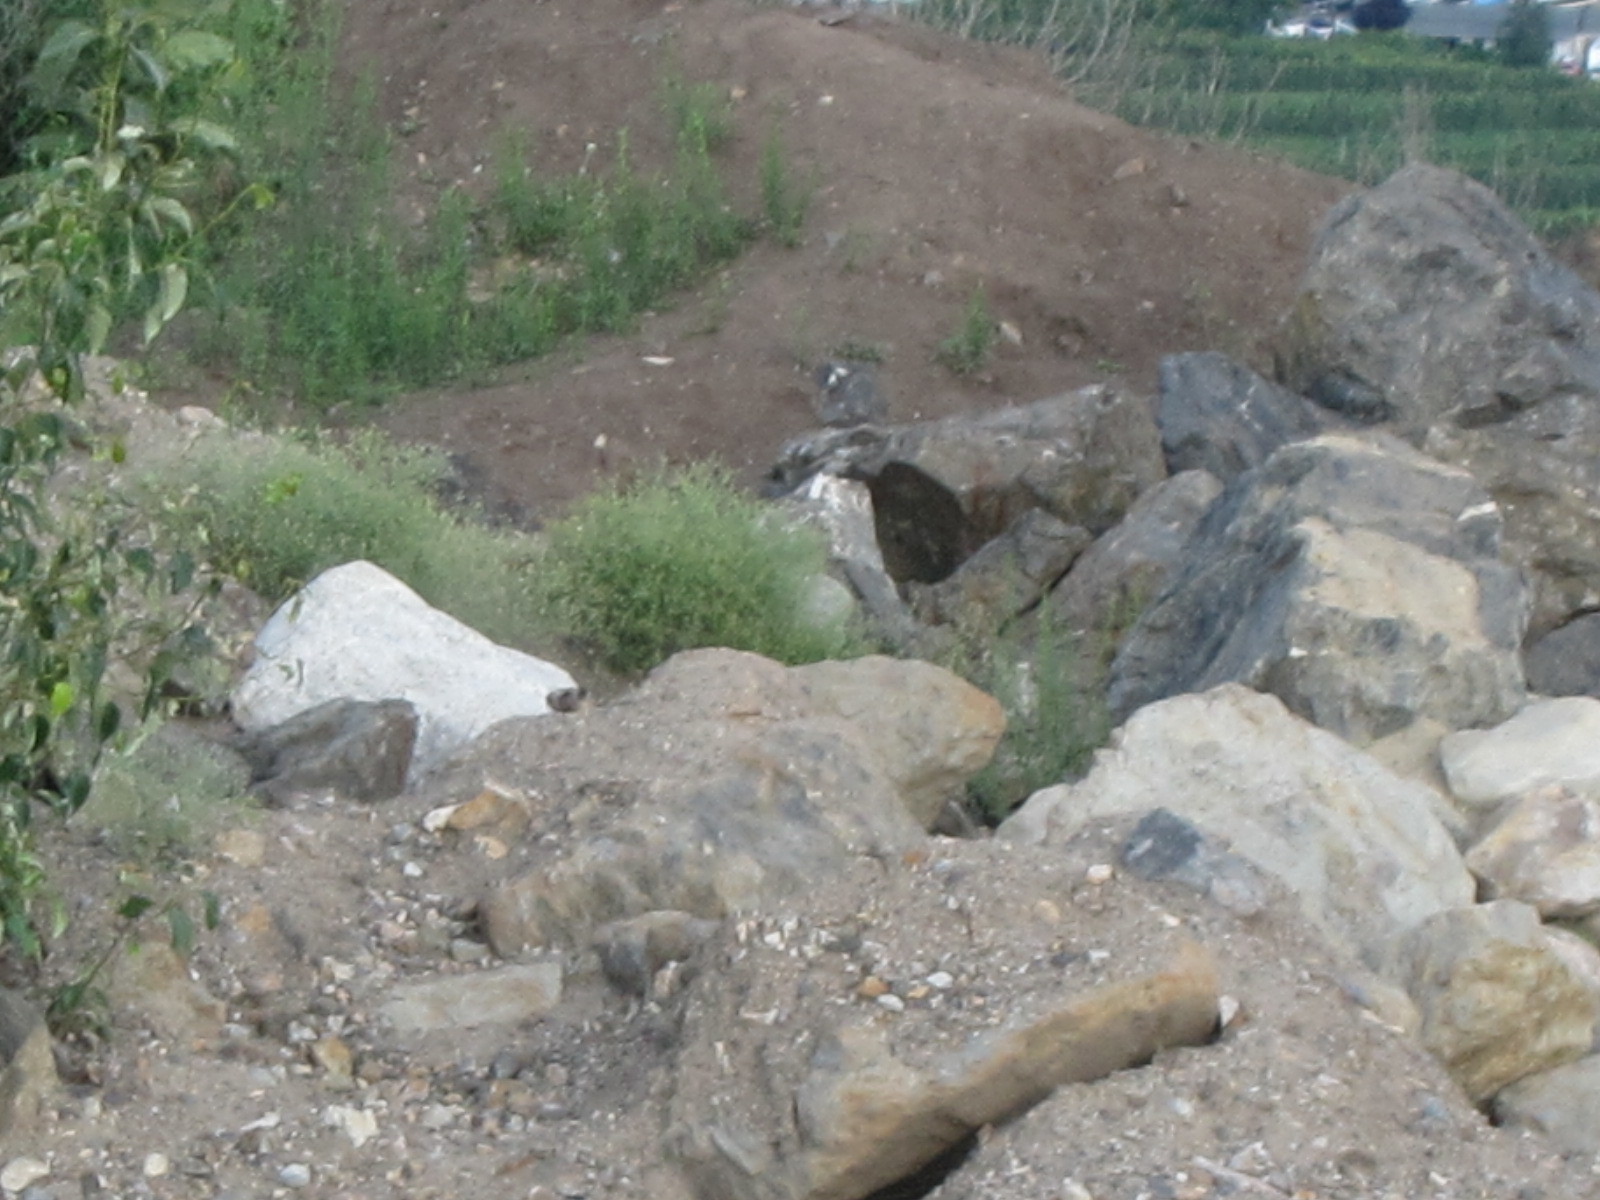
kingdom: Animalia
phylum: Chordata
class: Mammalia
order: Rodentia
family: Sciuridae
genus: Marmota
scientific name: Marmota flaviventris
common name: Yellow-bellied marmot
